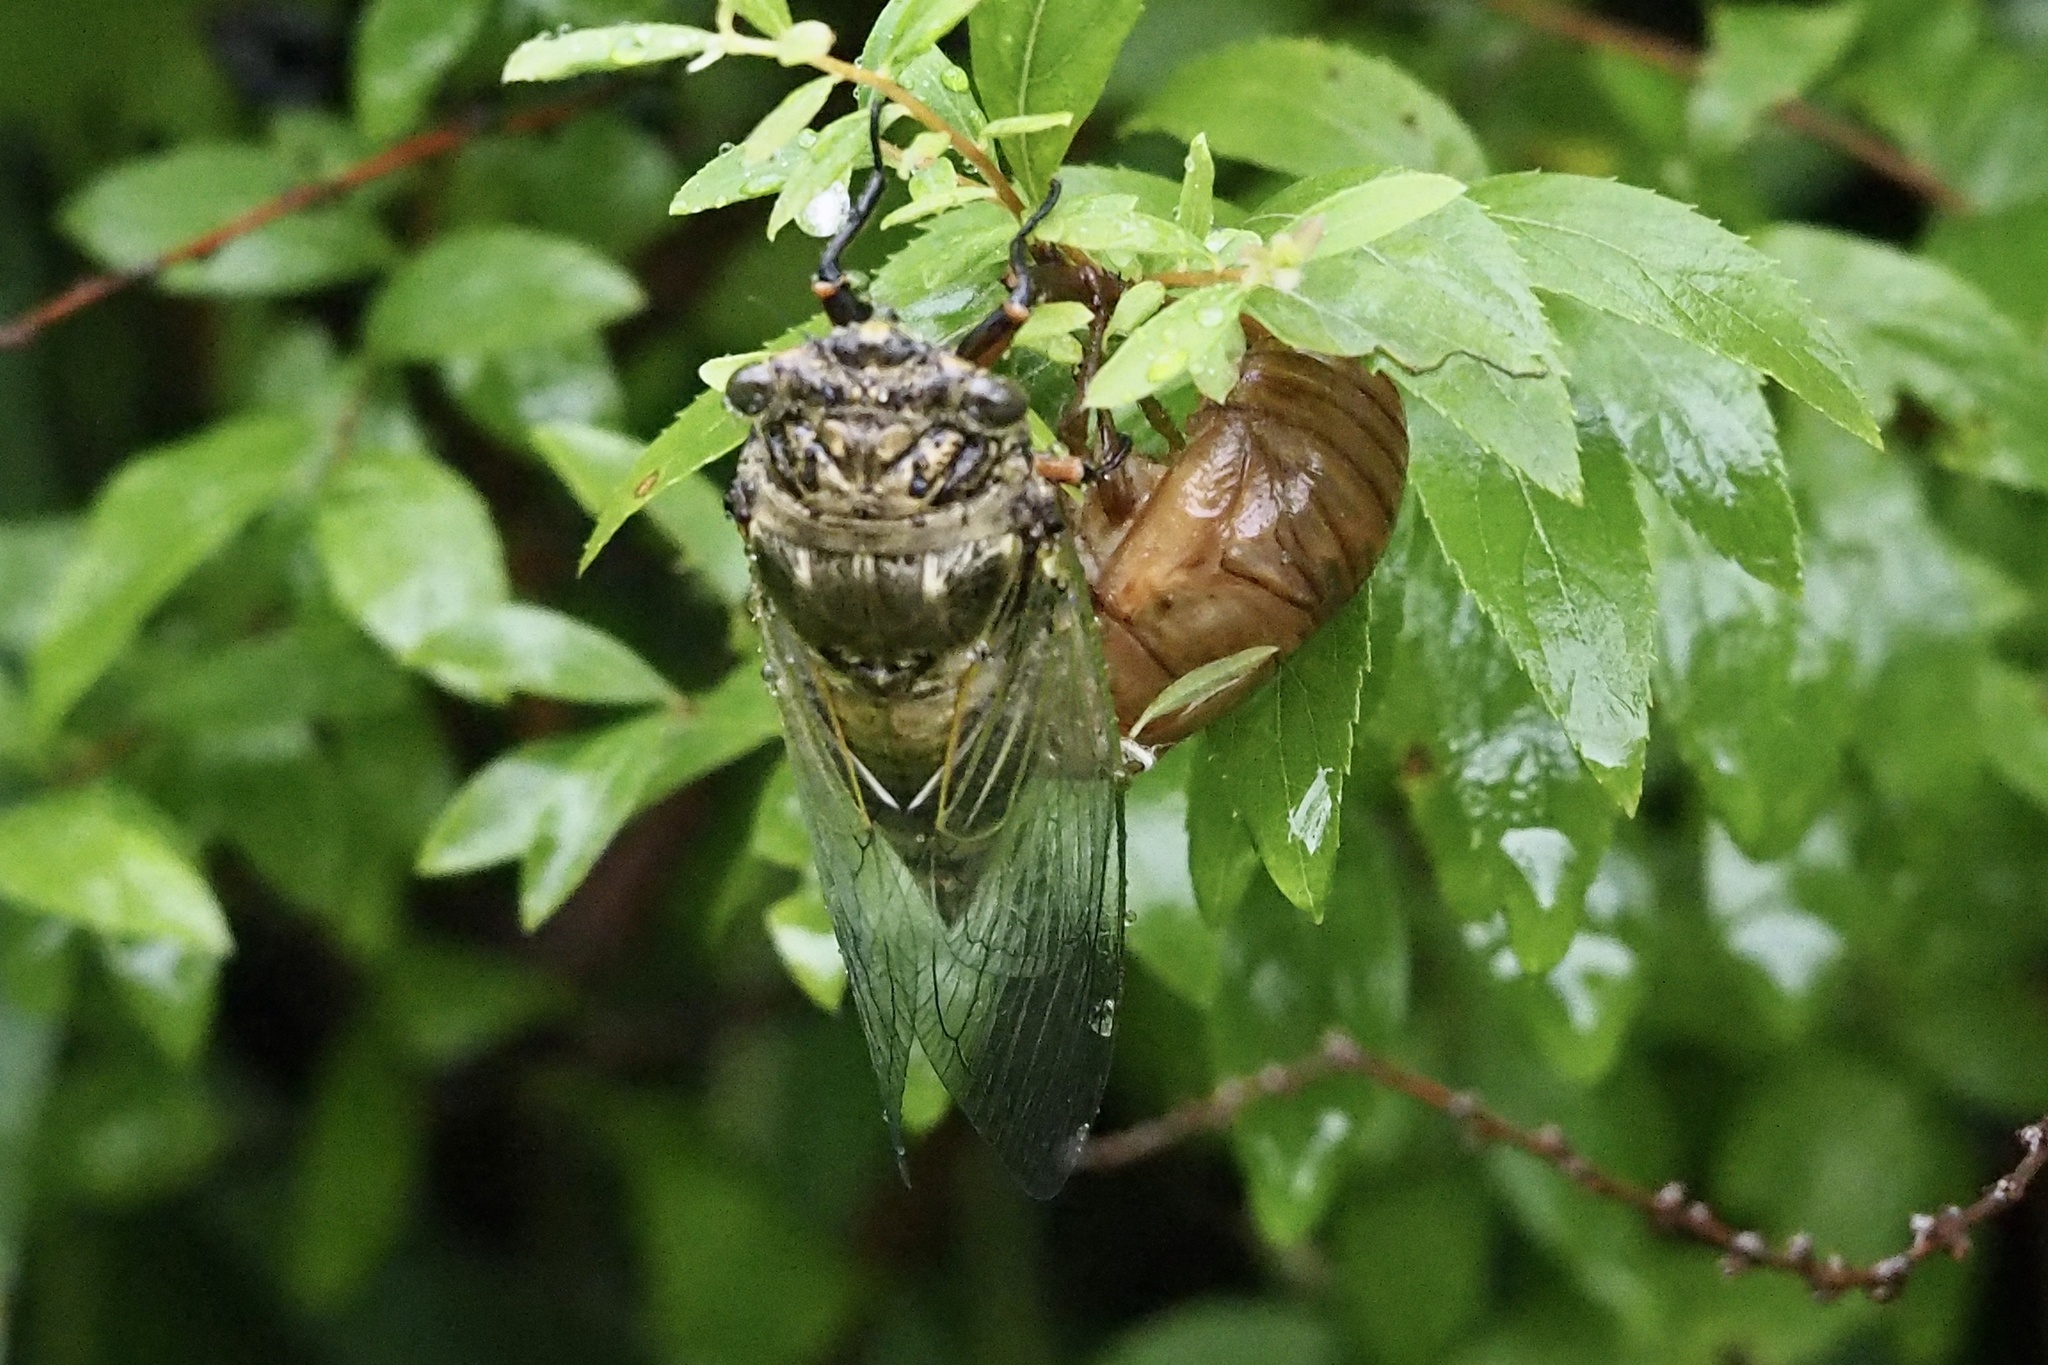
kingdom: Animalia
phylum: Arthropoda
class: Insecta
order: Hemiptera
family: Cicadidae
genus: Cryptotympana
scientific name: Cryptotympana facialis
